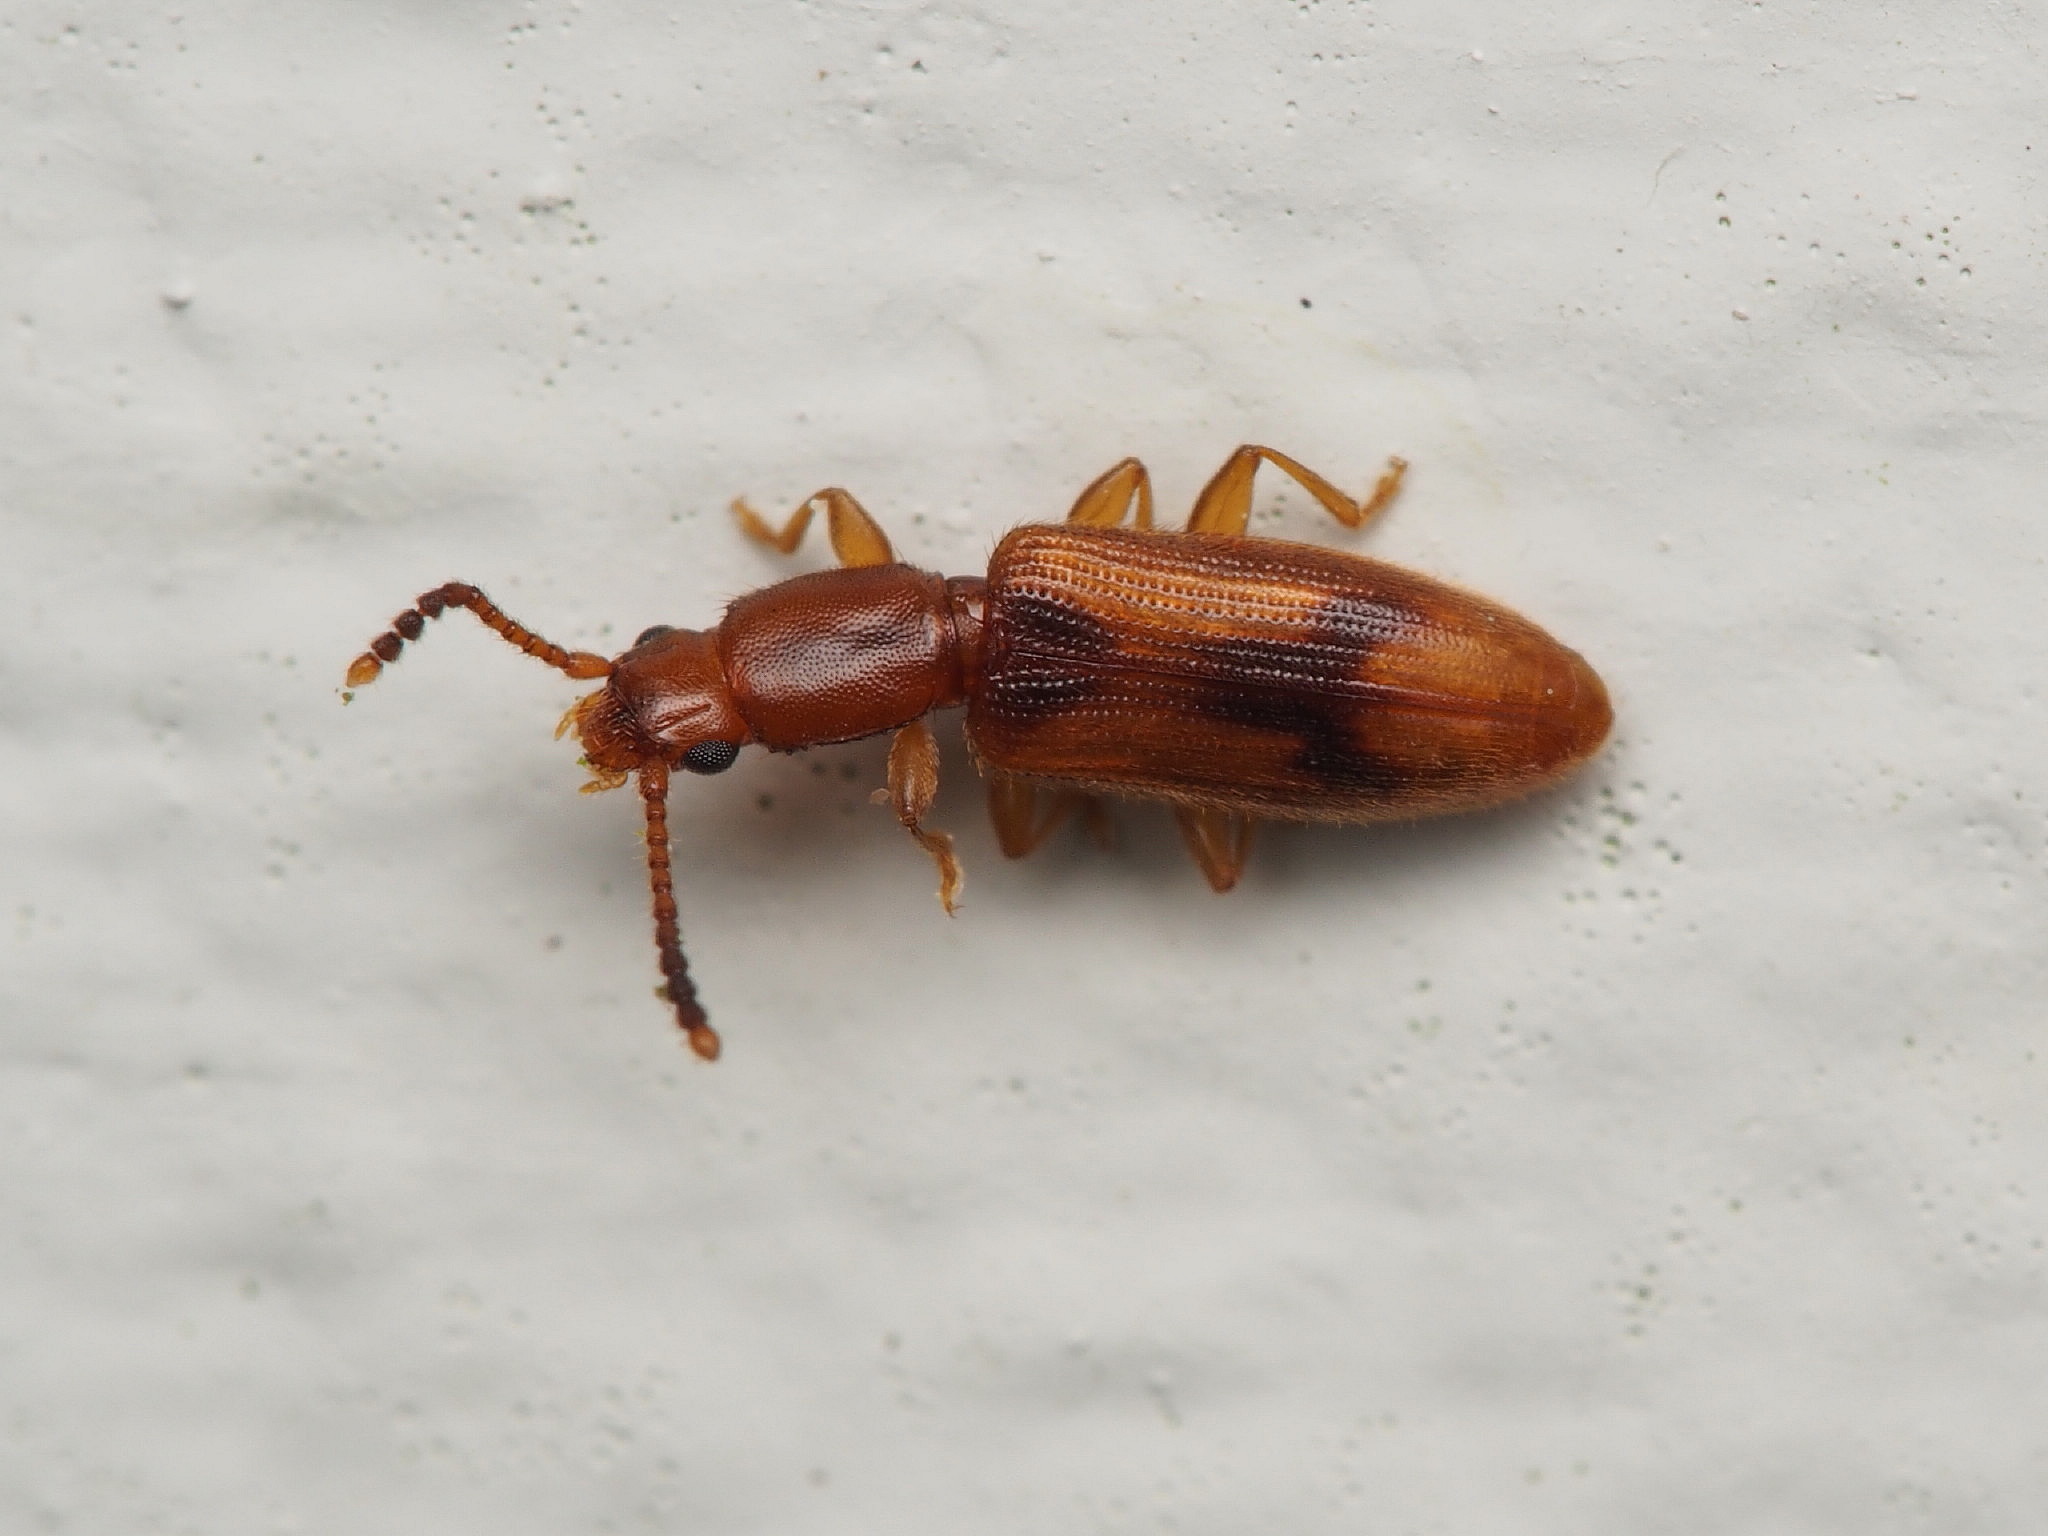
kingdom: Animalia
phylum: Arthropoda
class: Insecta
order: Coleoptera
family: Silvanidae
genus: Cryptamorpha
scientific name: Cryptamorpha desjardinsi
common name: Cryptamorpha
